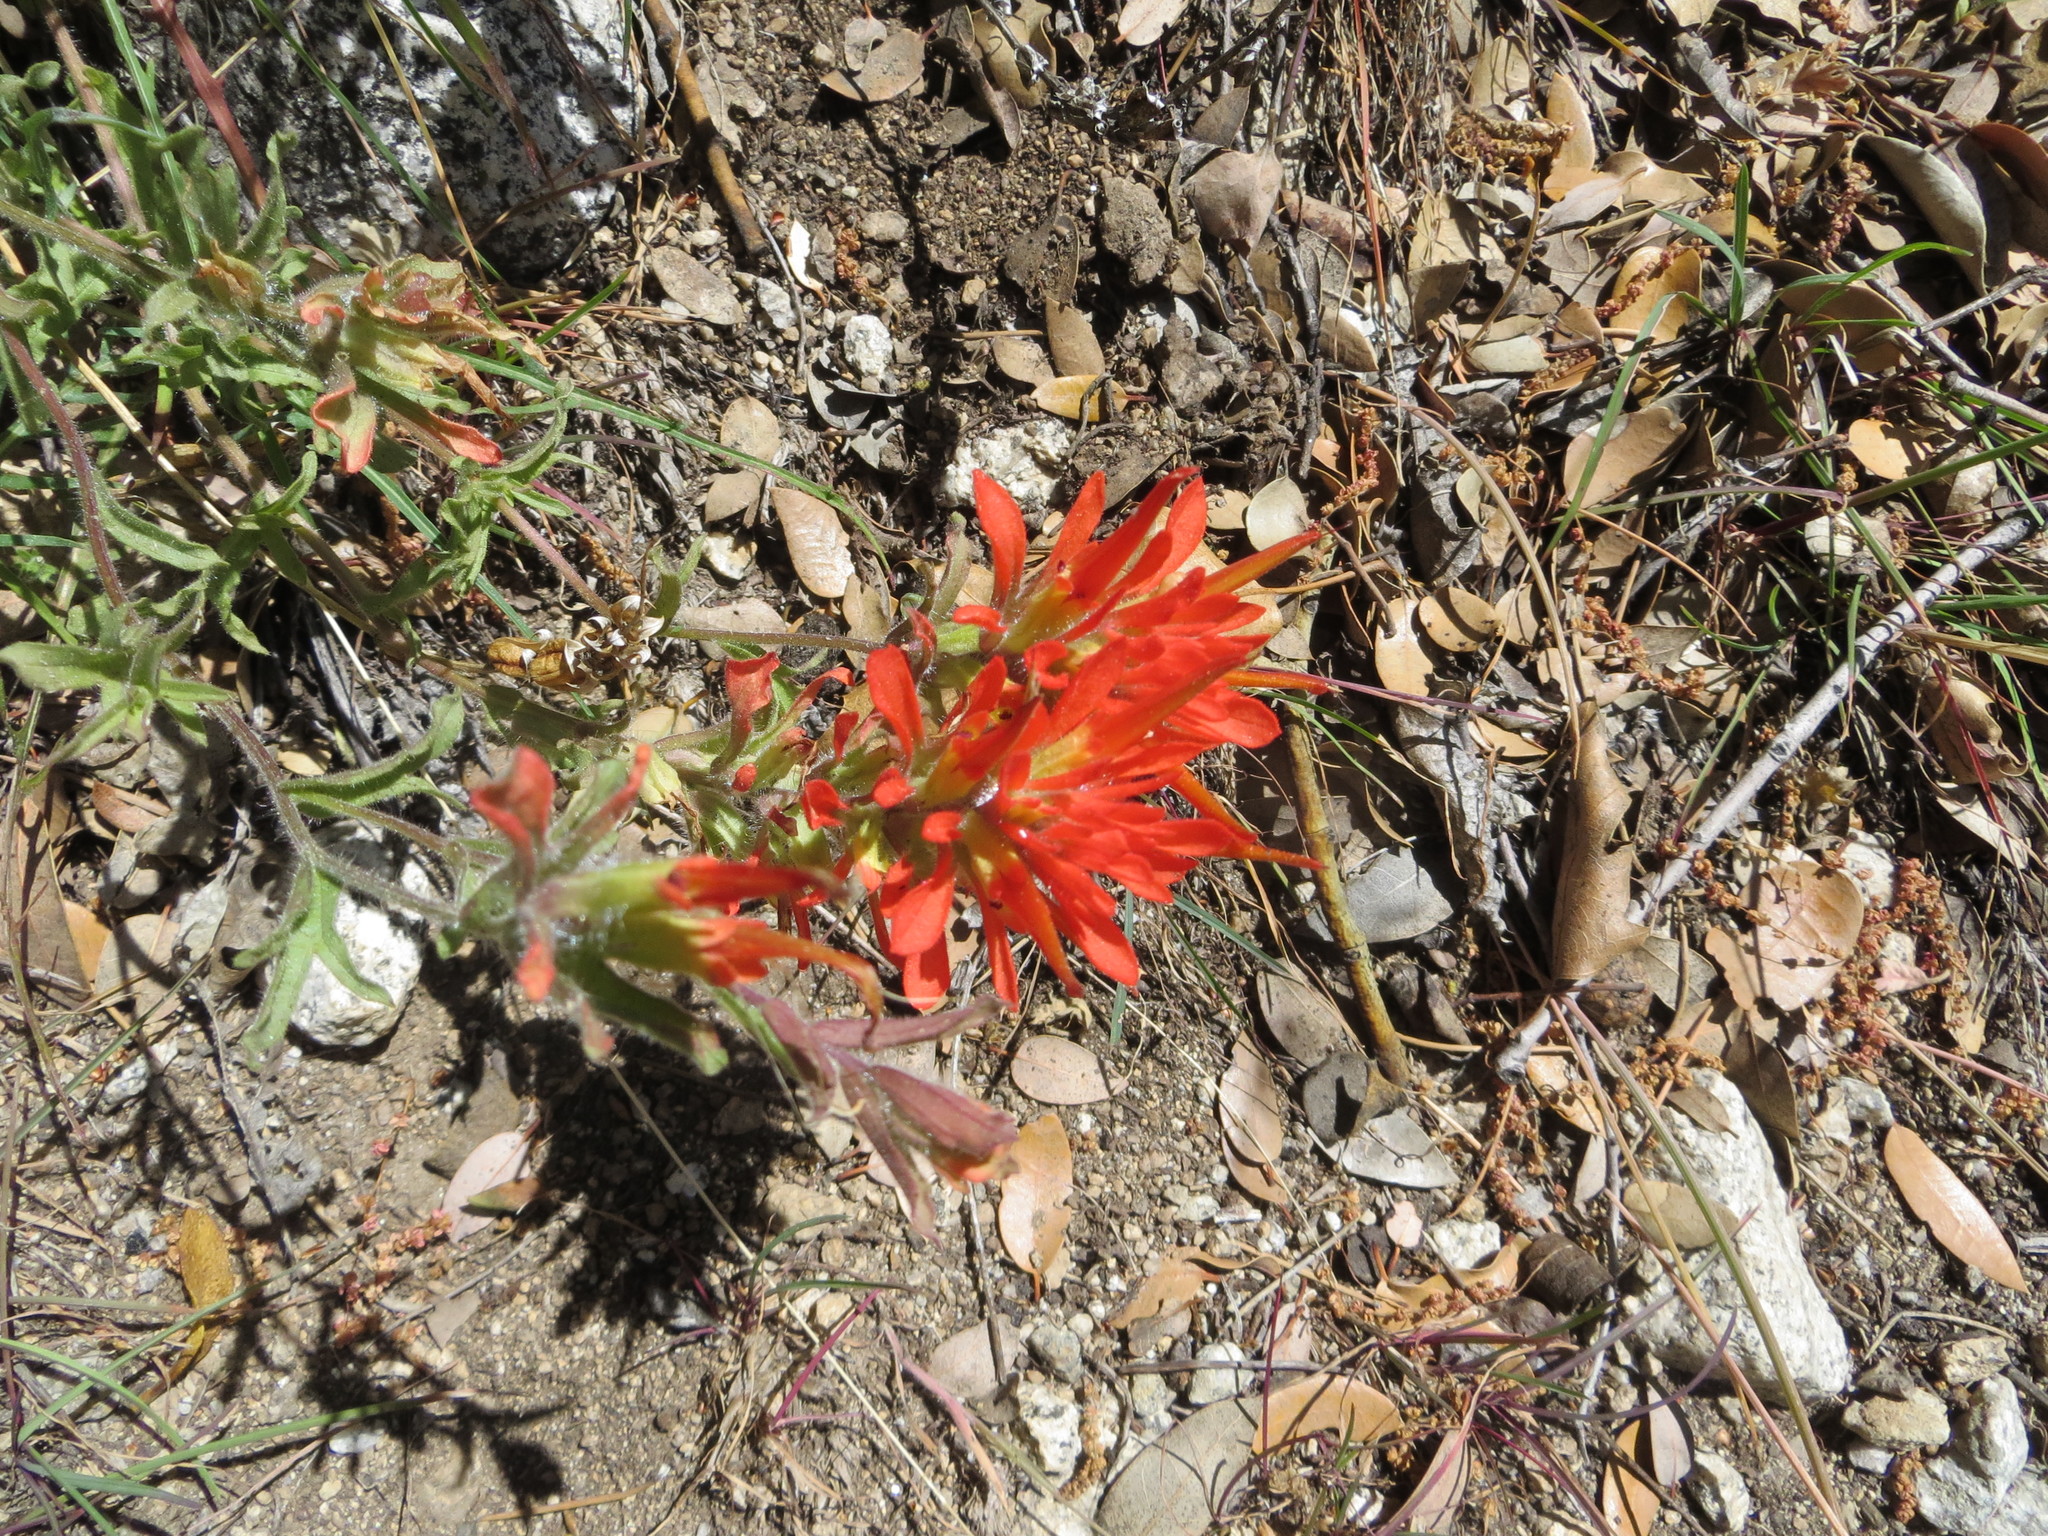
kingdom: Plantae
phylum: Tracheophyta
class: Magnoliopsida
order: Lamiales
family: Orobanchaceae
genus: Castilleja
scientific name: Castilleja applegatei
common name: Wavy-leaf paintbrush
